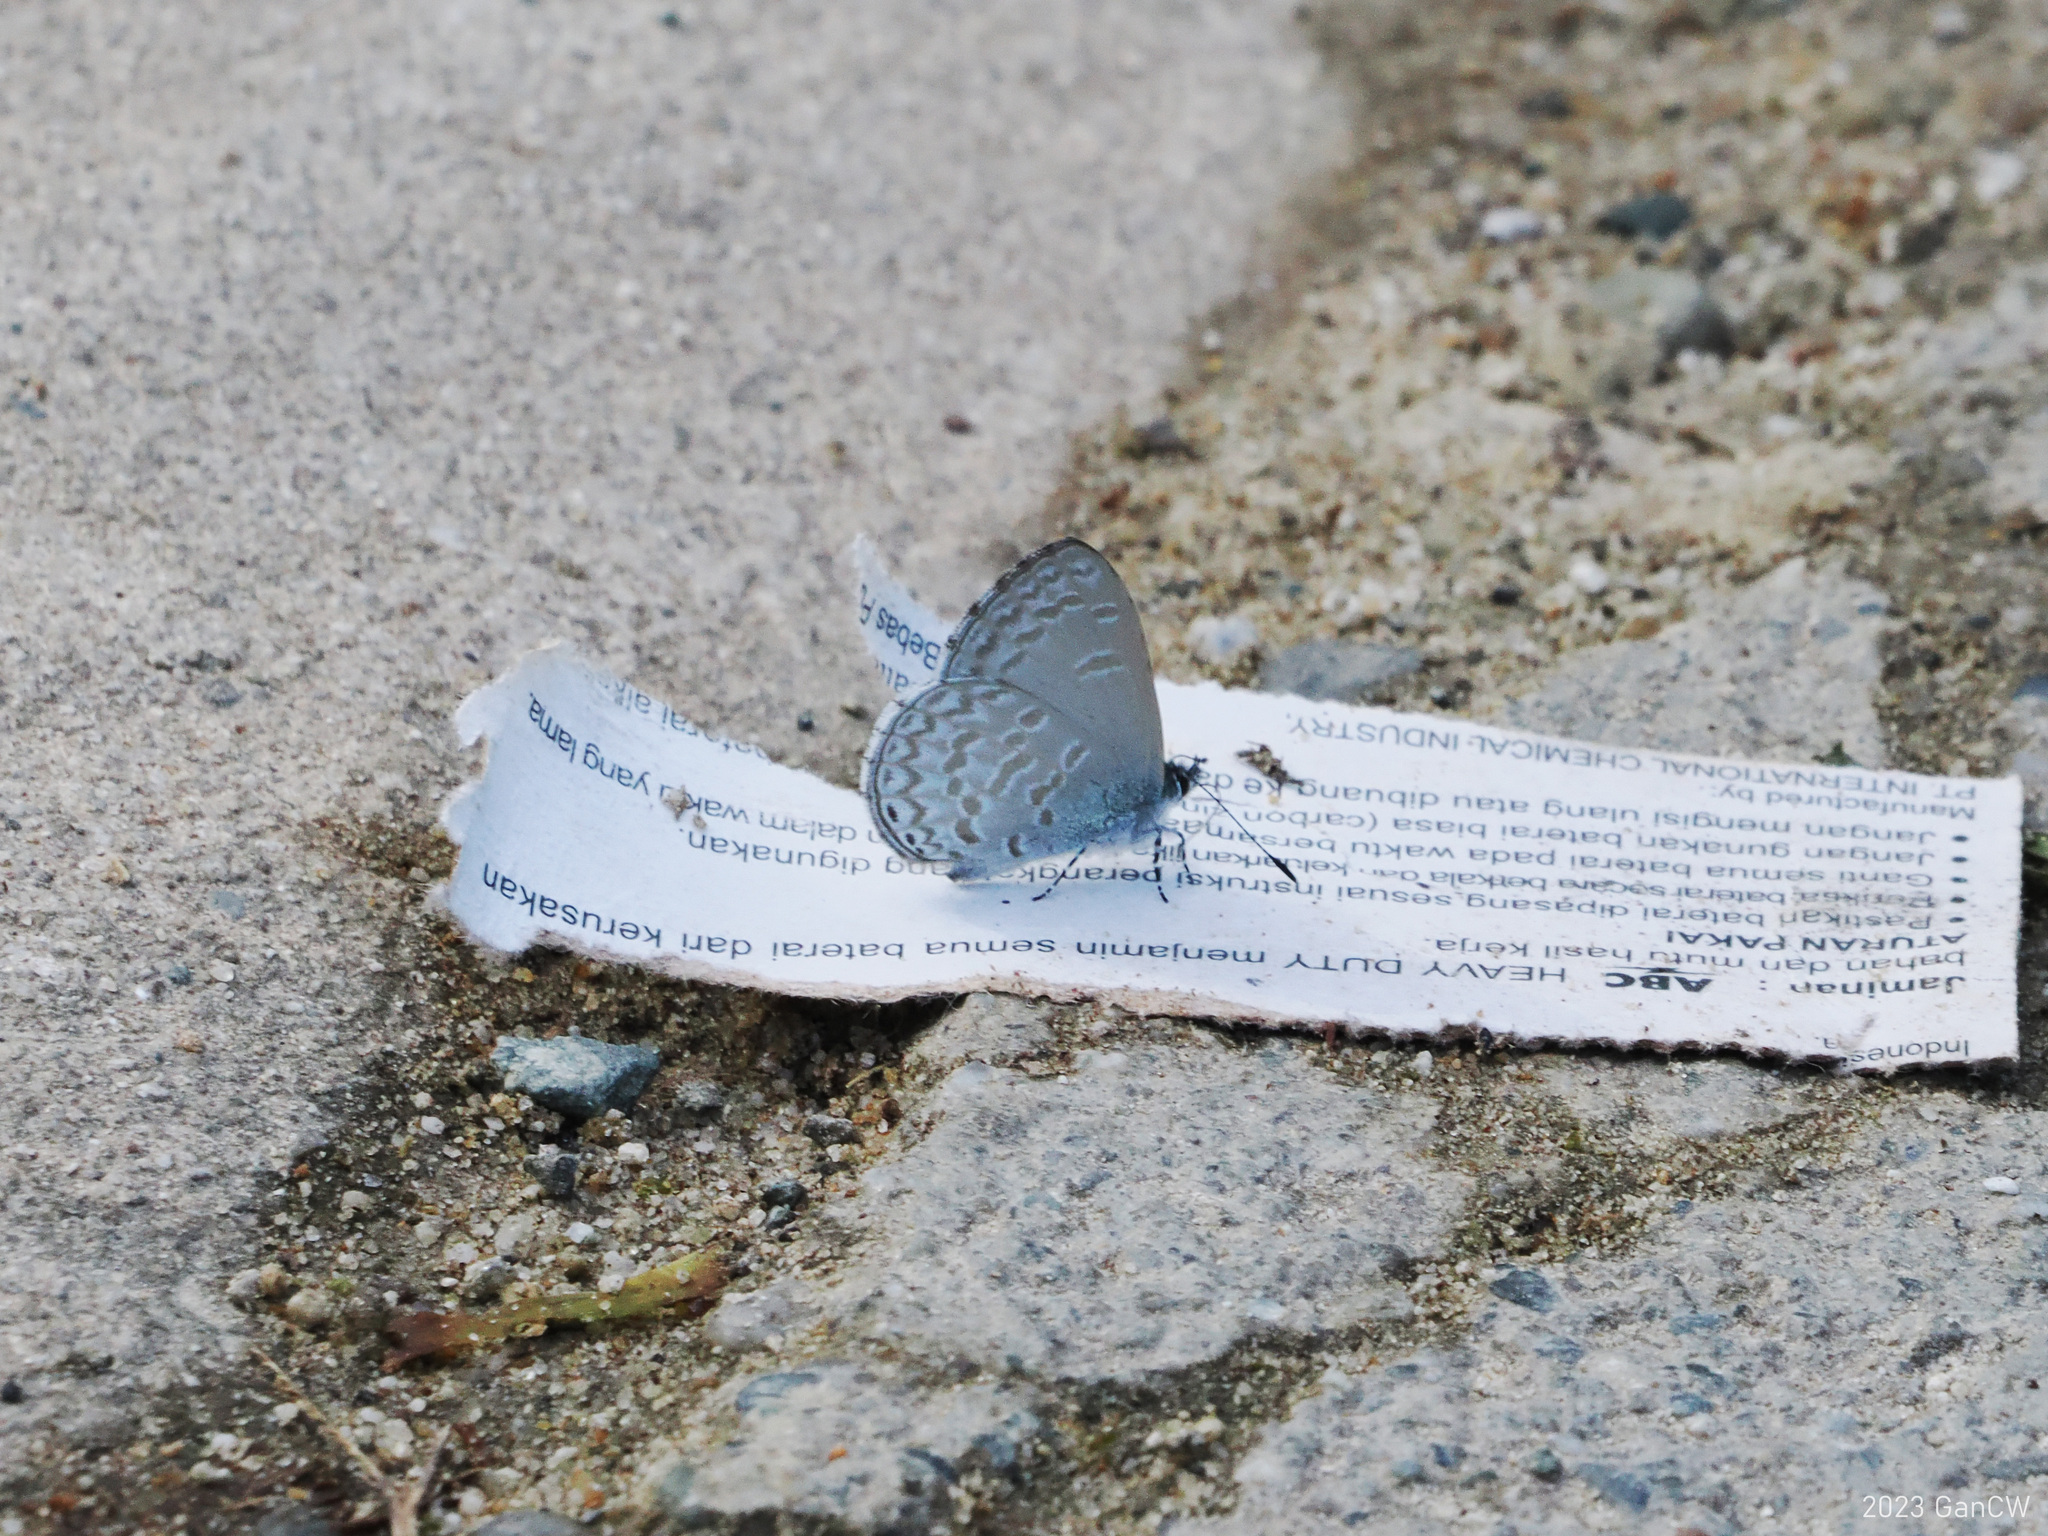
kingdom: Animalia
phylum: Arthropoda
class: Insecta
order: Lepidoptera
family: Lycaenidae
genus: Monodontides
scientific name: Monodontides
